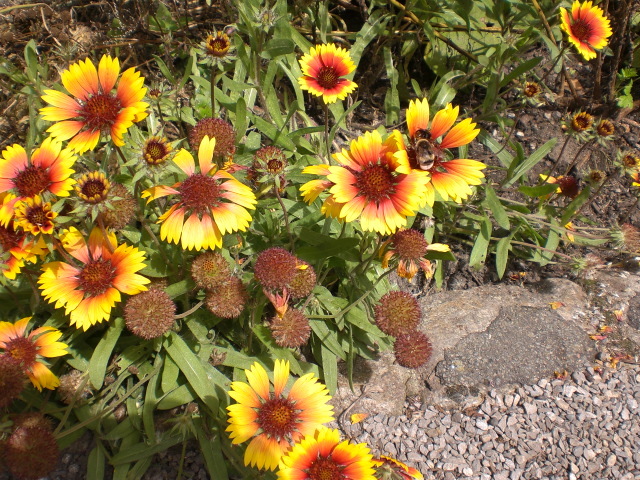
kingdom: Plantae
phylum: Tracheophyta
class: Magnoliopsida
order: Asterales
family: Asteraceae
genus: Gaillardia
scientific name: Gaillardia grandiflora
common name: Blanket flower
